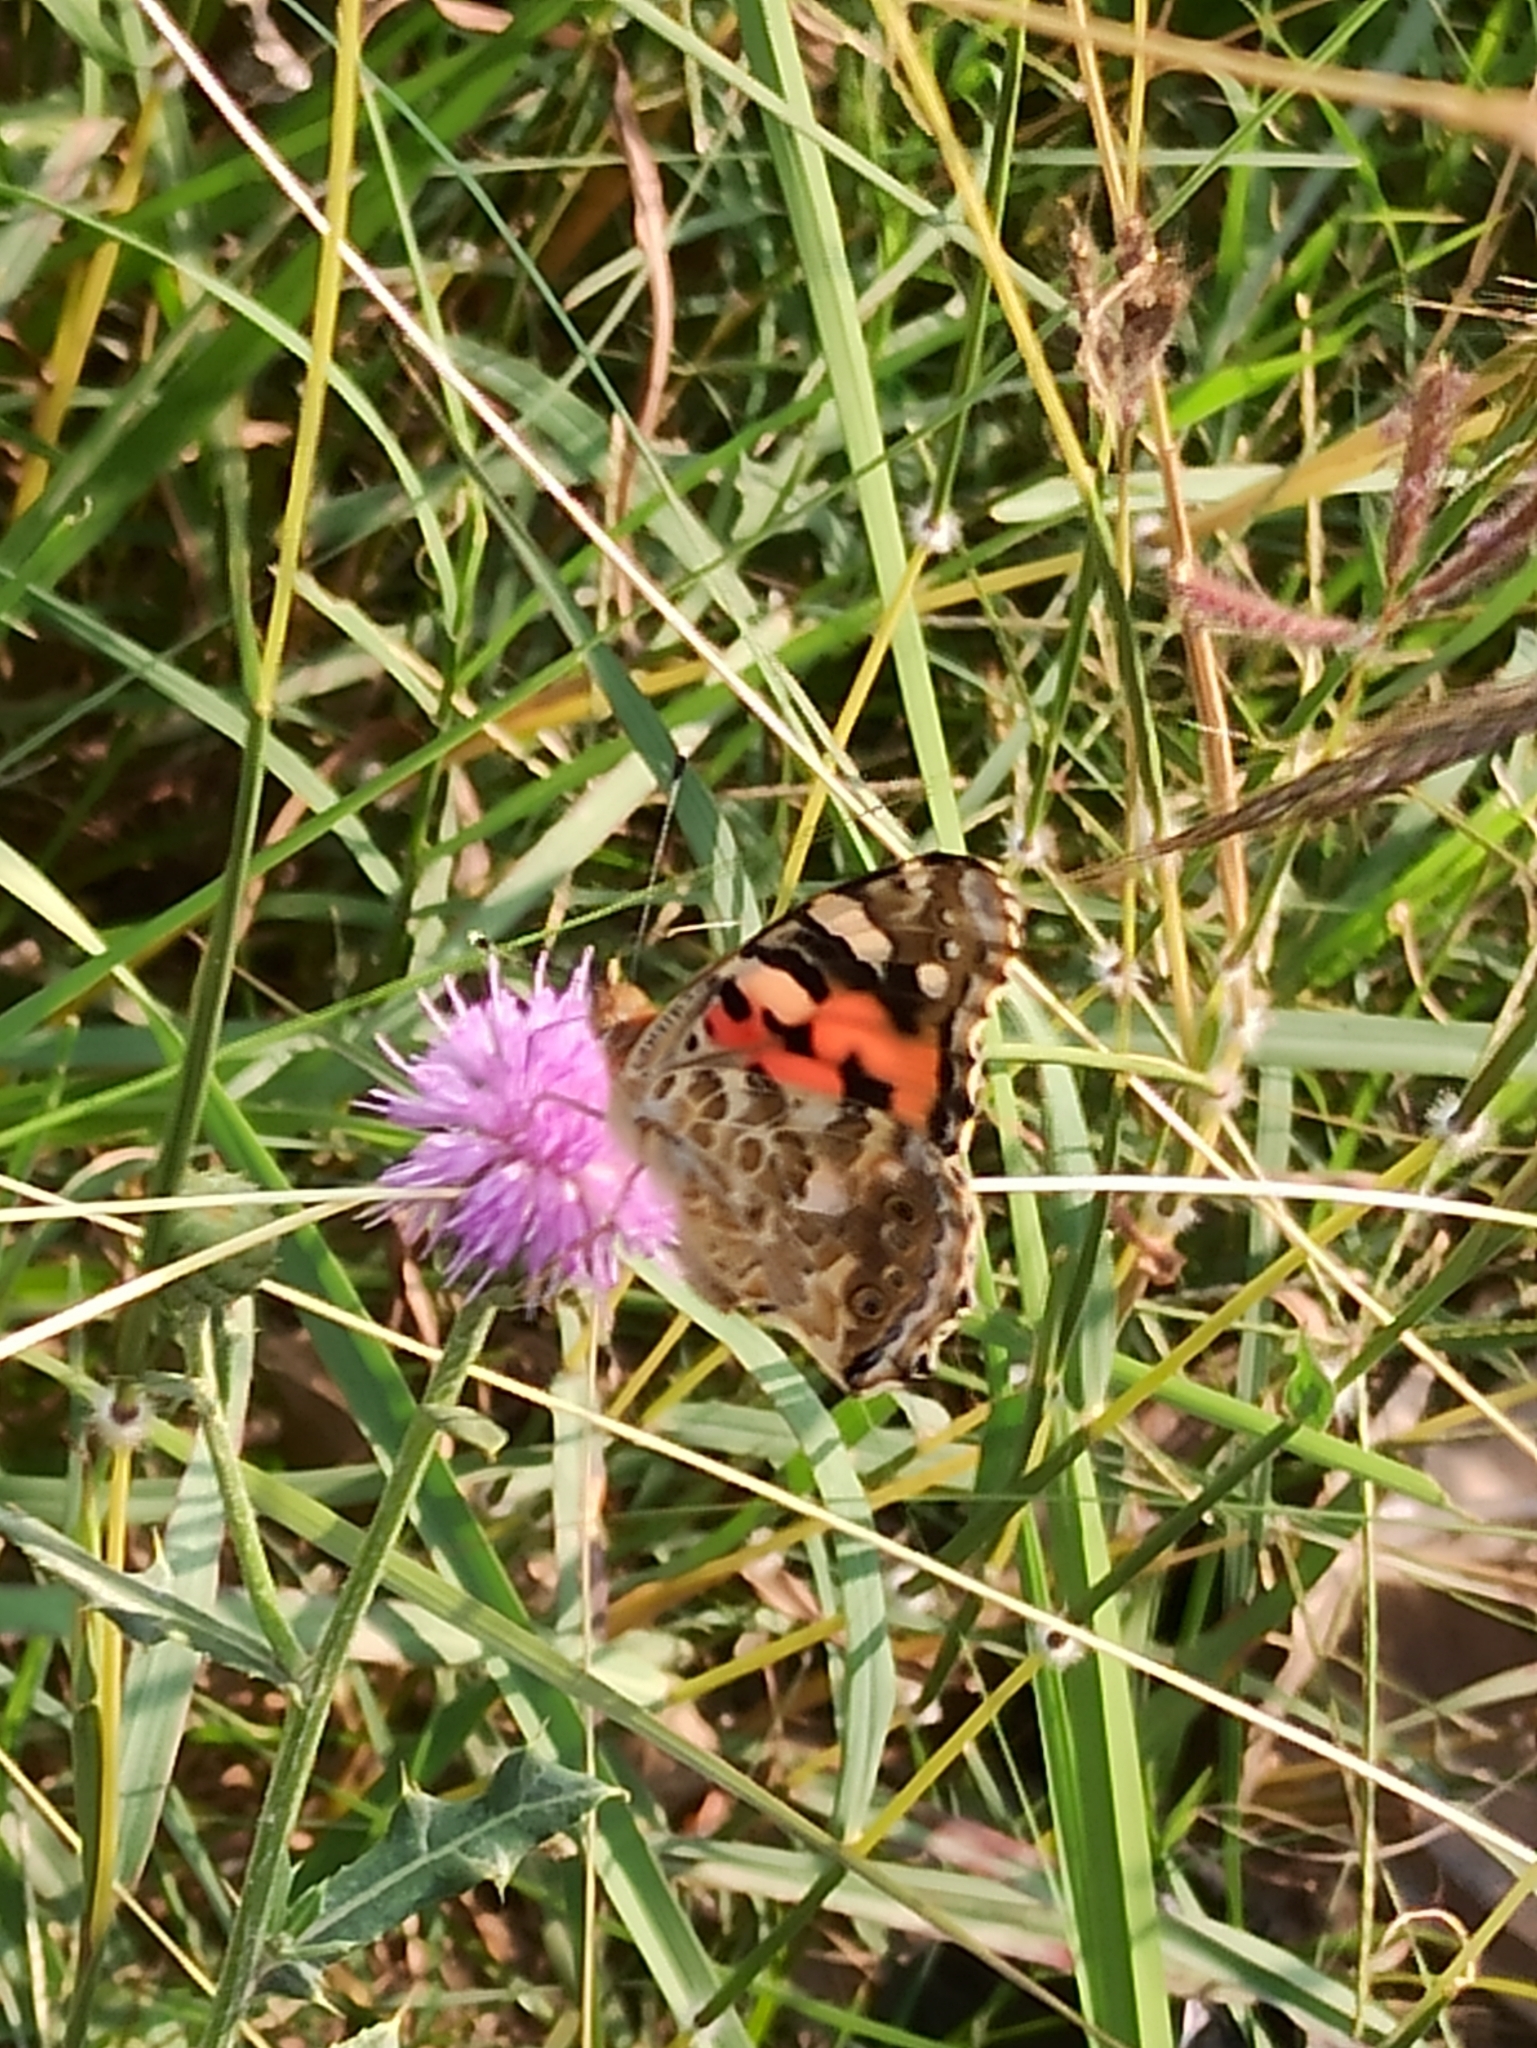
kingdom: Animalia
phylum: Arthropoda
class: Insecta
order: Lepidoptera
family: Nymphalidae
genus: Vanessa
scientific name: Vanessa cardui
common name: Painted lady
